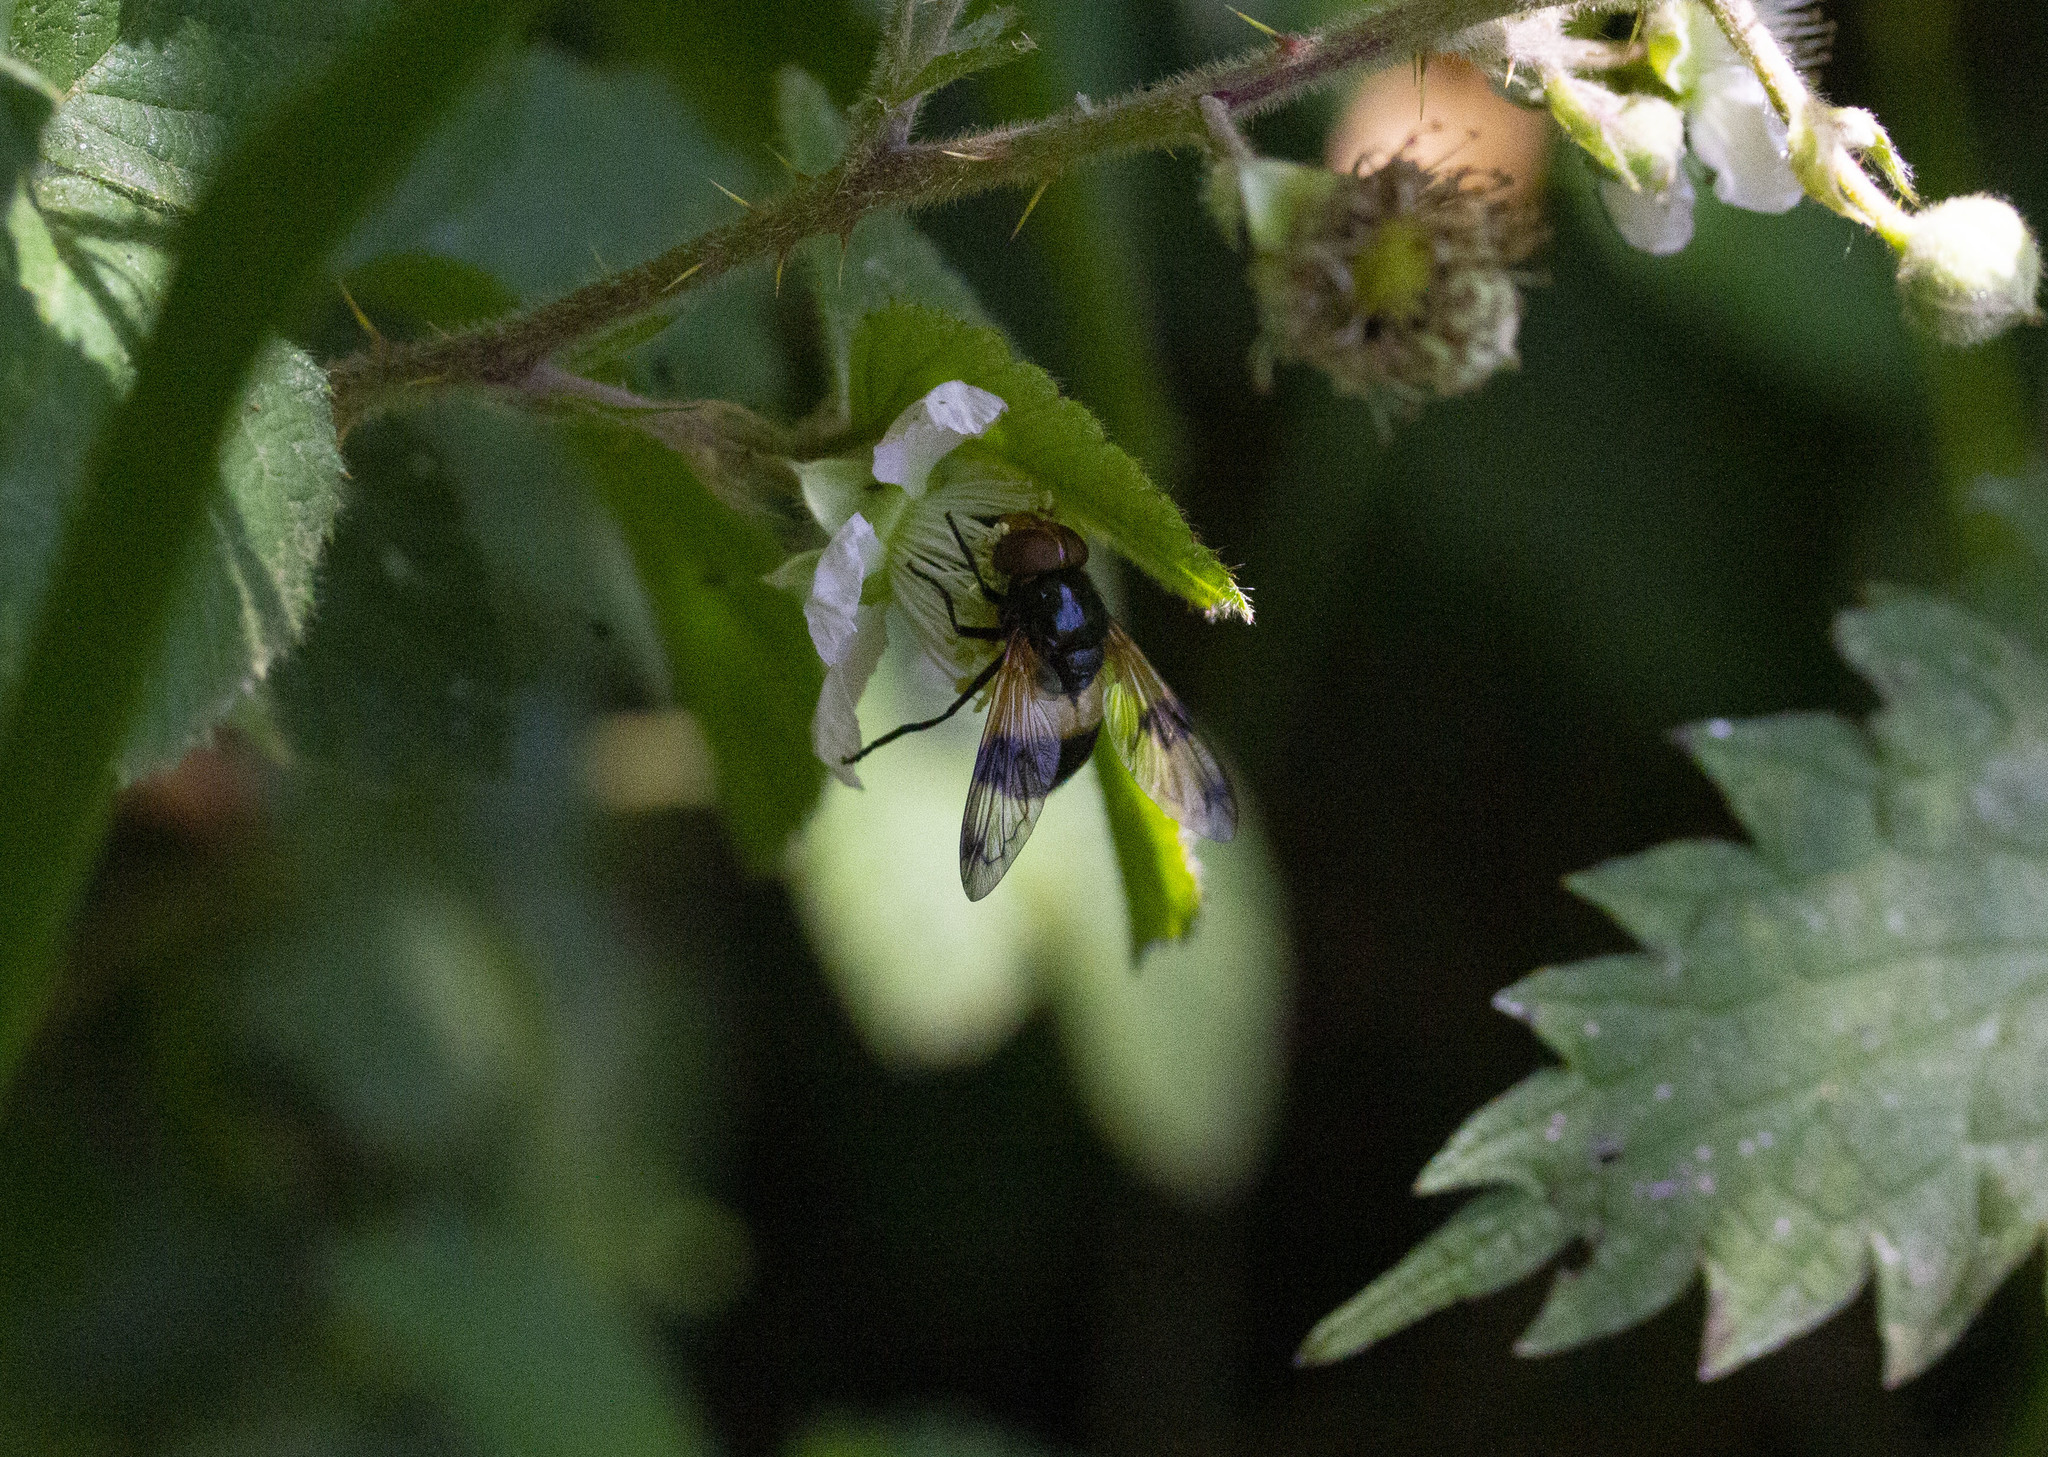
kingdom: Animalia
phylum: Arthropoda
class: Insecta
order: Diptera
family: Syrphidae
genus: Volucella
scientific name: Volucella pellucens
